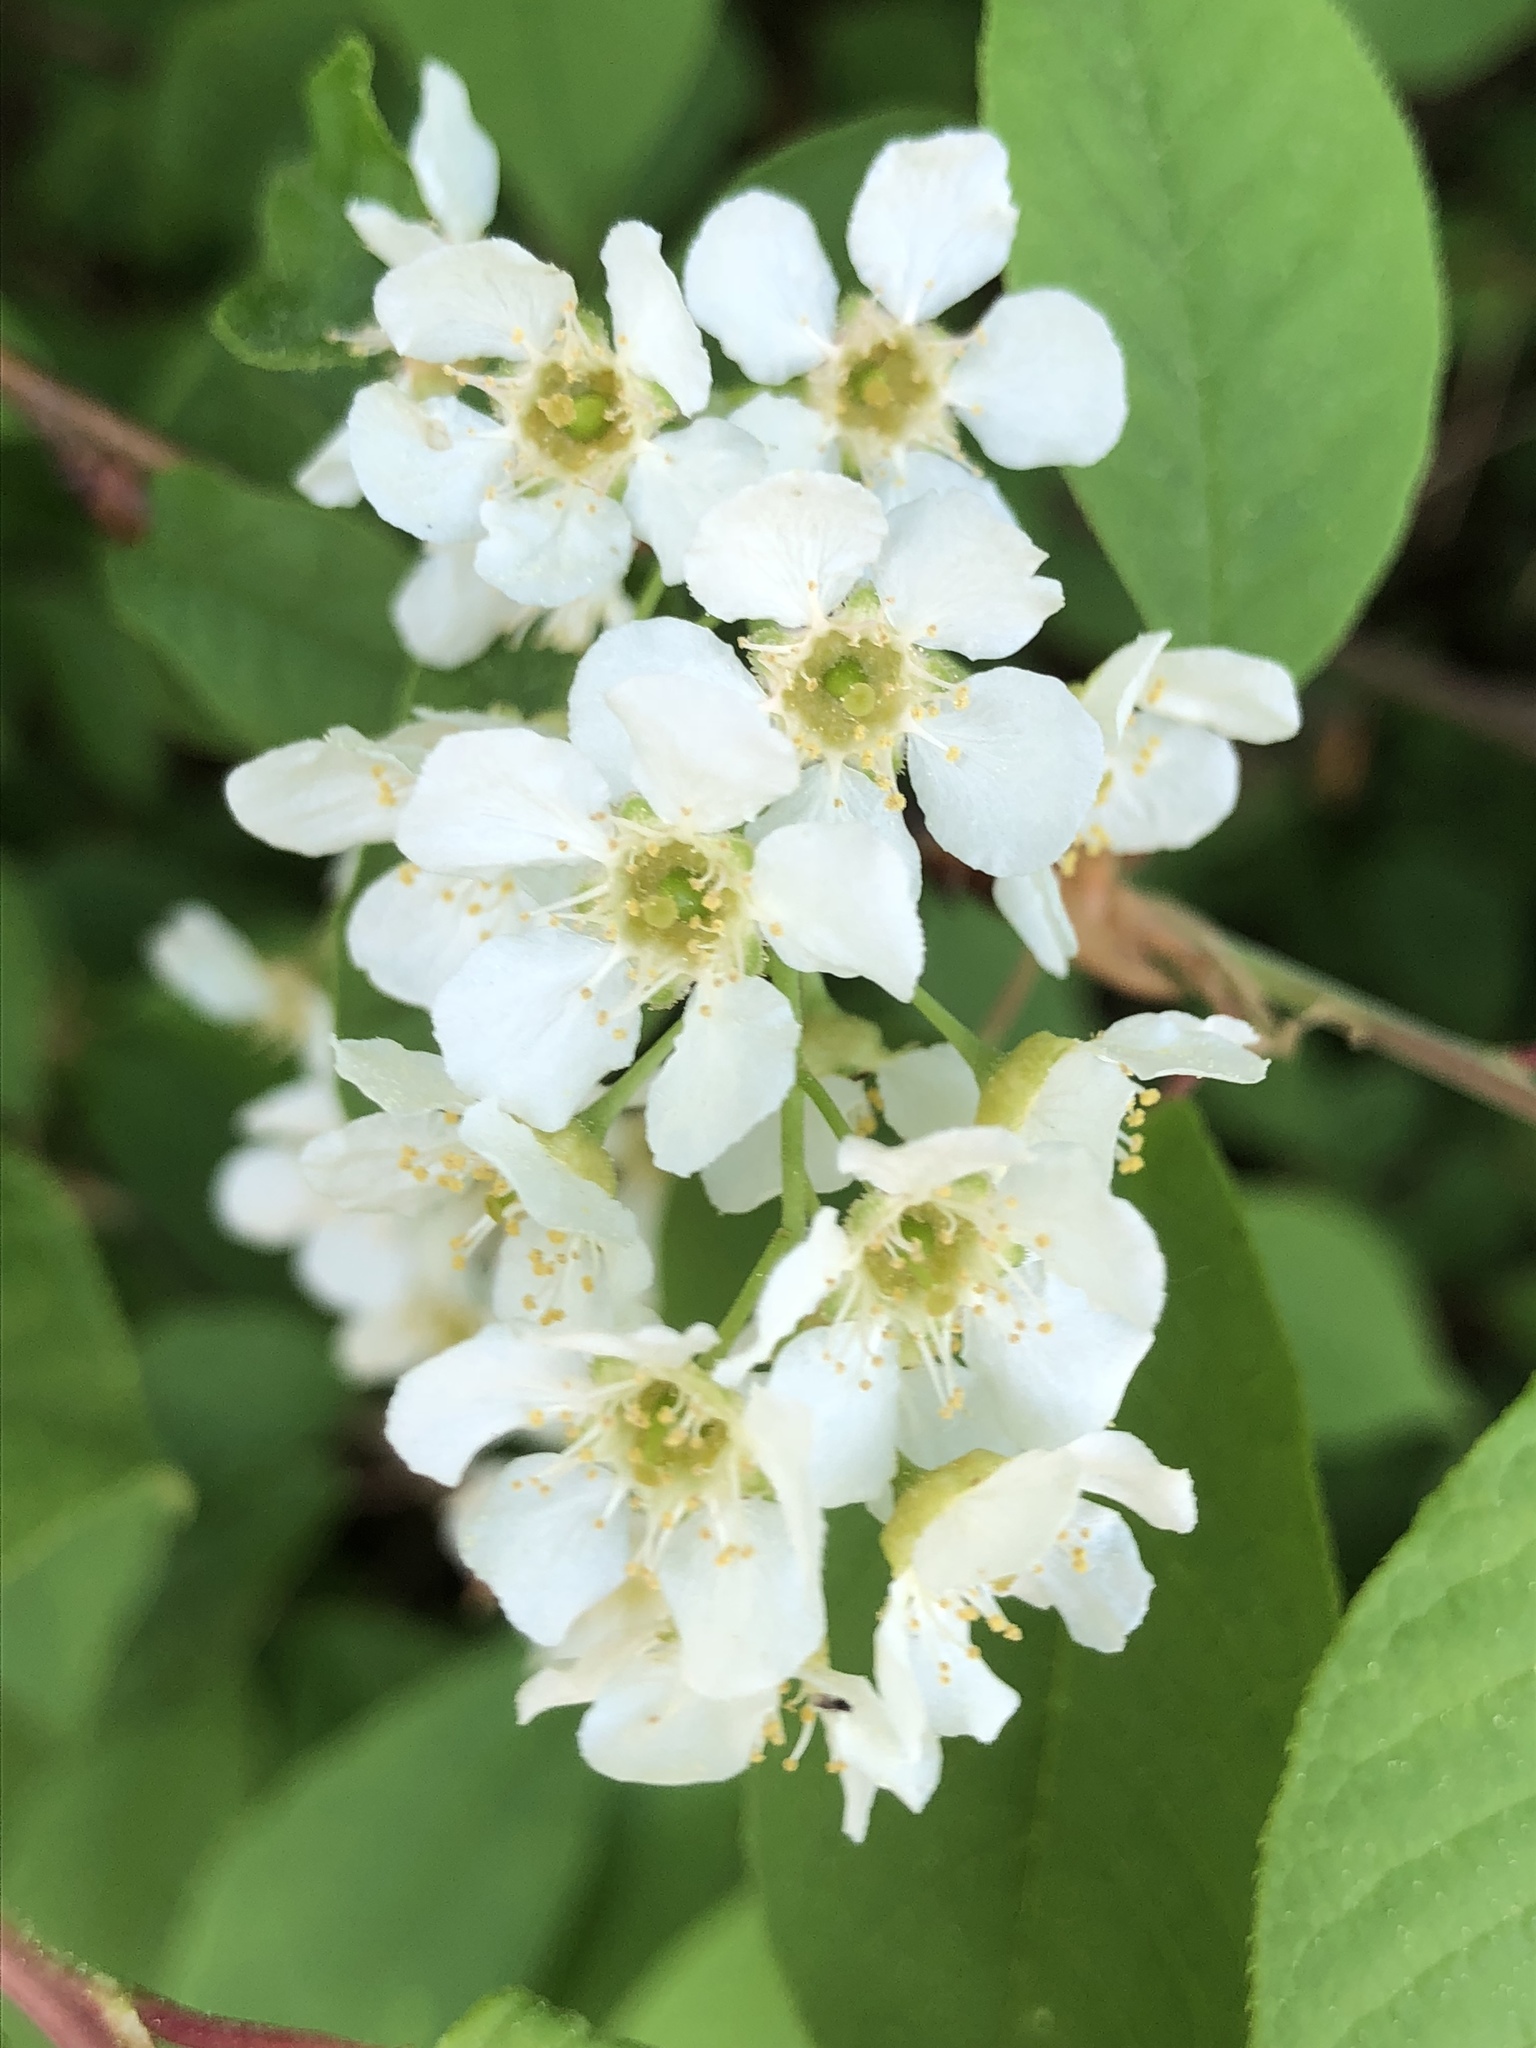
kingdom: Plantae
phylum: Tracheophyta
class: Magnoliopsida
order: Rosales
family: Rosaceae
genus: Prunus
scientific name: Prunus padus
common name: Bird cherry
